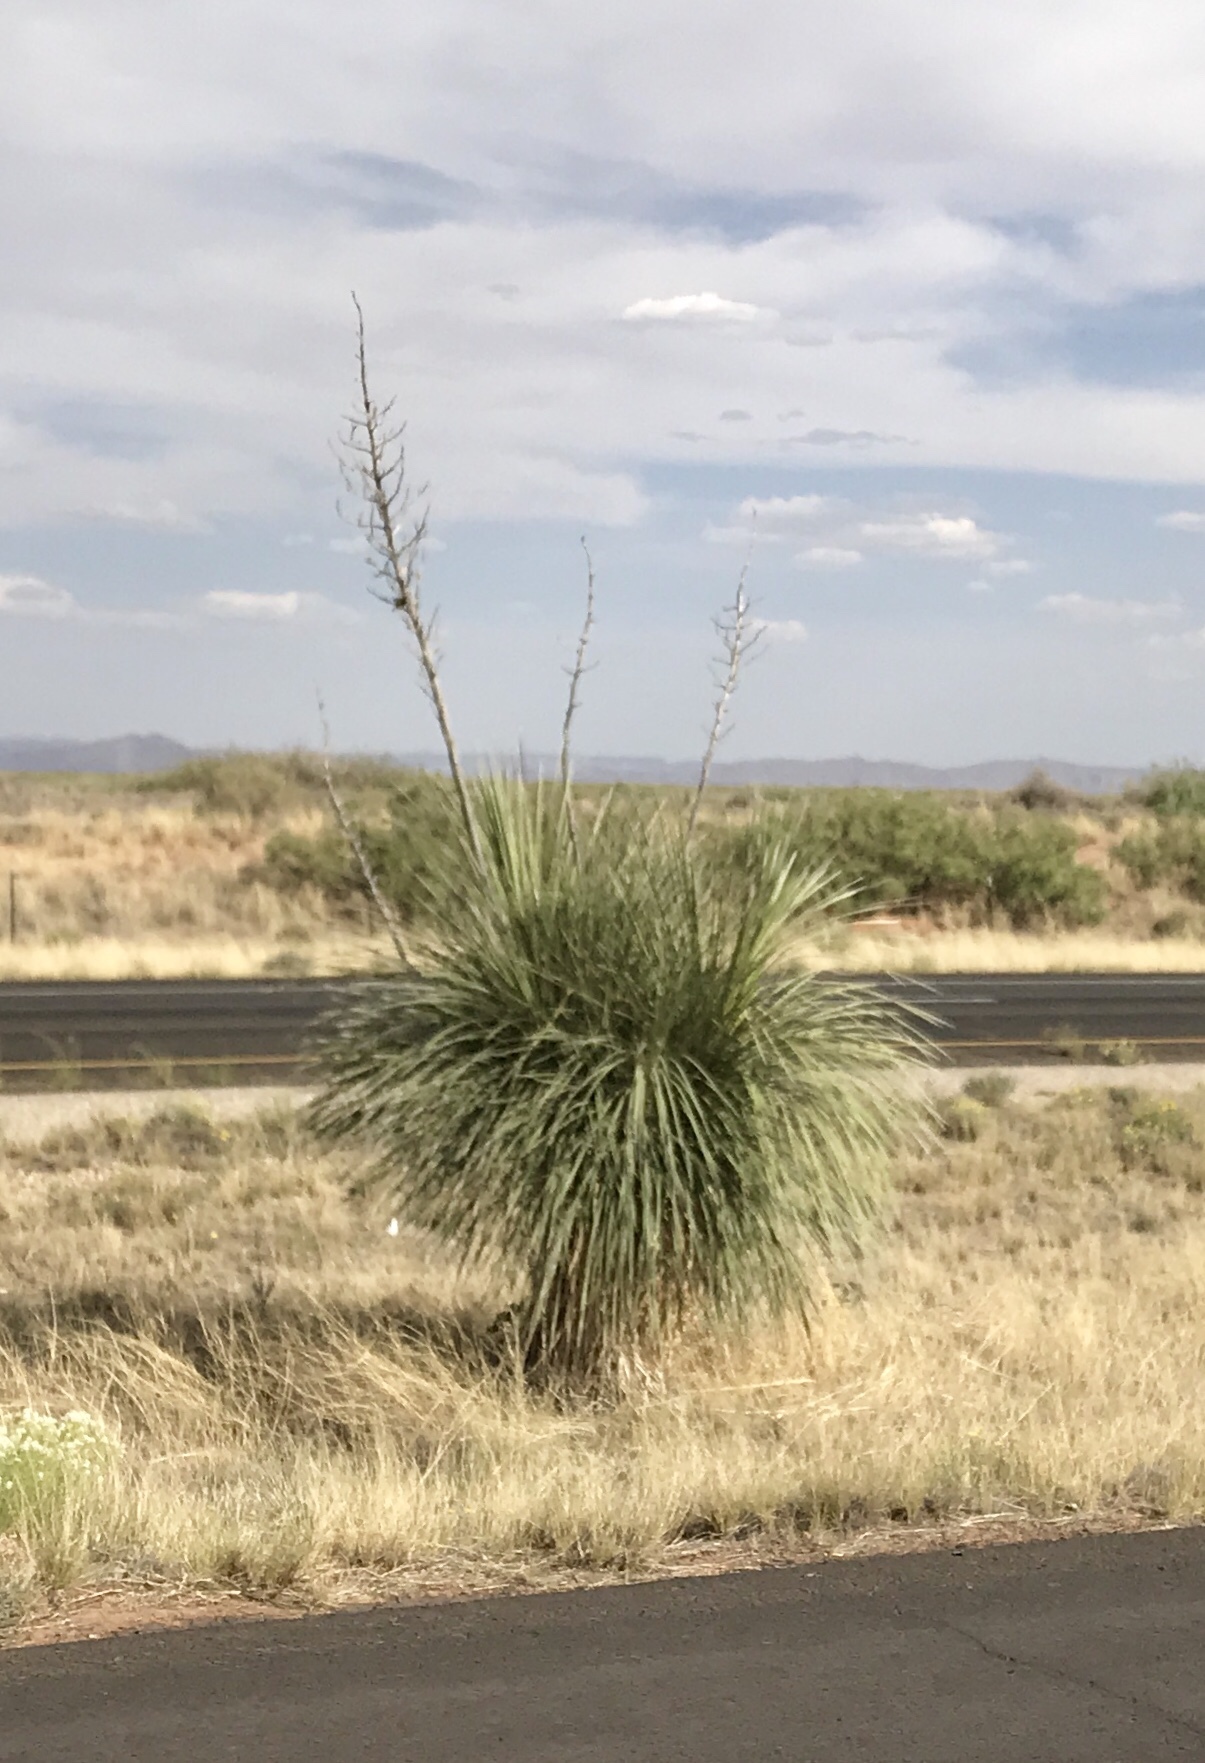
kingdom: Plantae
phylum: Tracheophyta
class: Liliopsida
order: Asparagales
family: Asparagaceae
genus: Yucca
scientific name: Yucca elata
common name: Palmella
